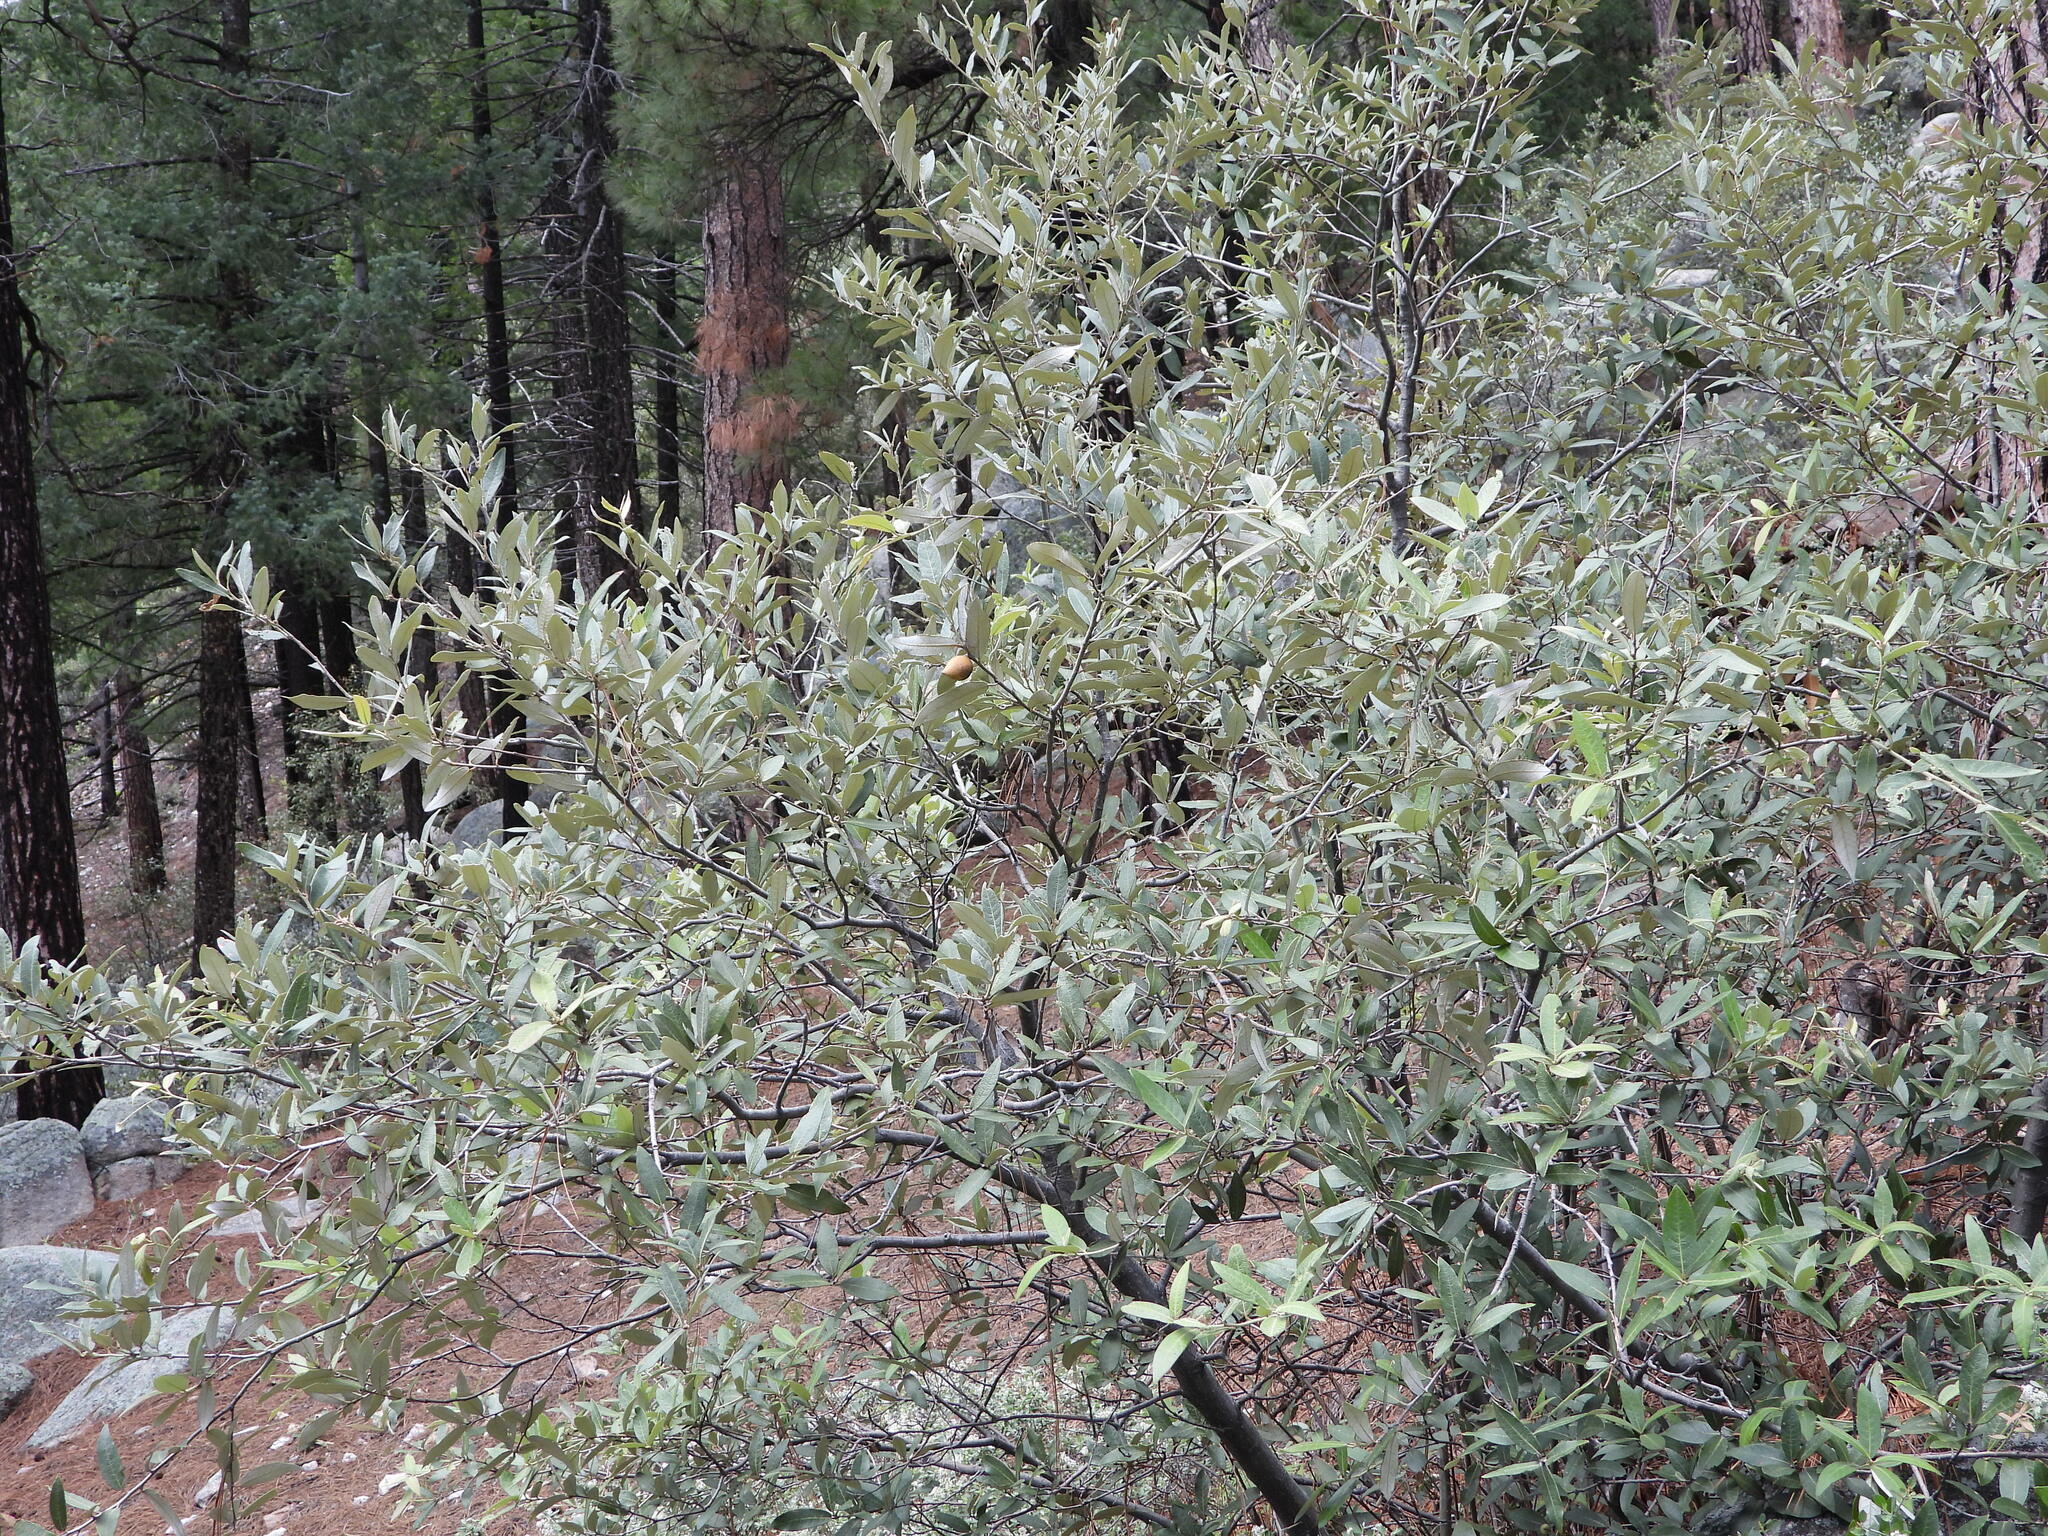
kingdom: Plantae
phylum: Tracheophyta
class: Magnoliopsida
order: Fagales
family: Fagaceae
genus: Quercus
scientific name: Quercus hypoleucoides
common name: Silverleaf oak
